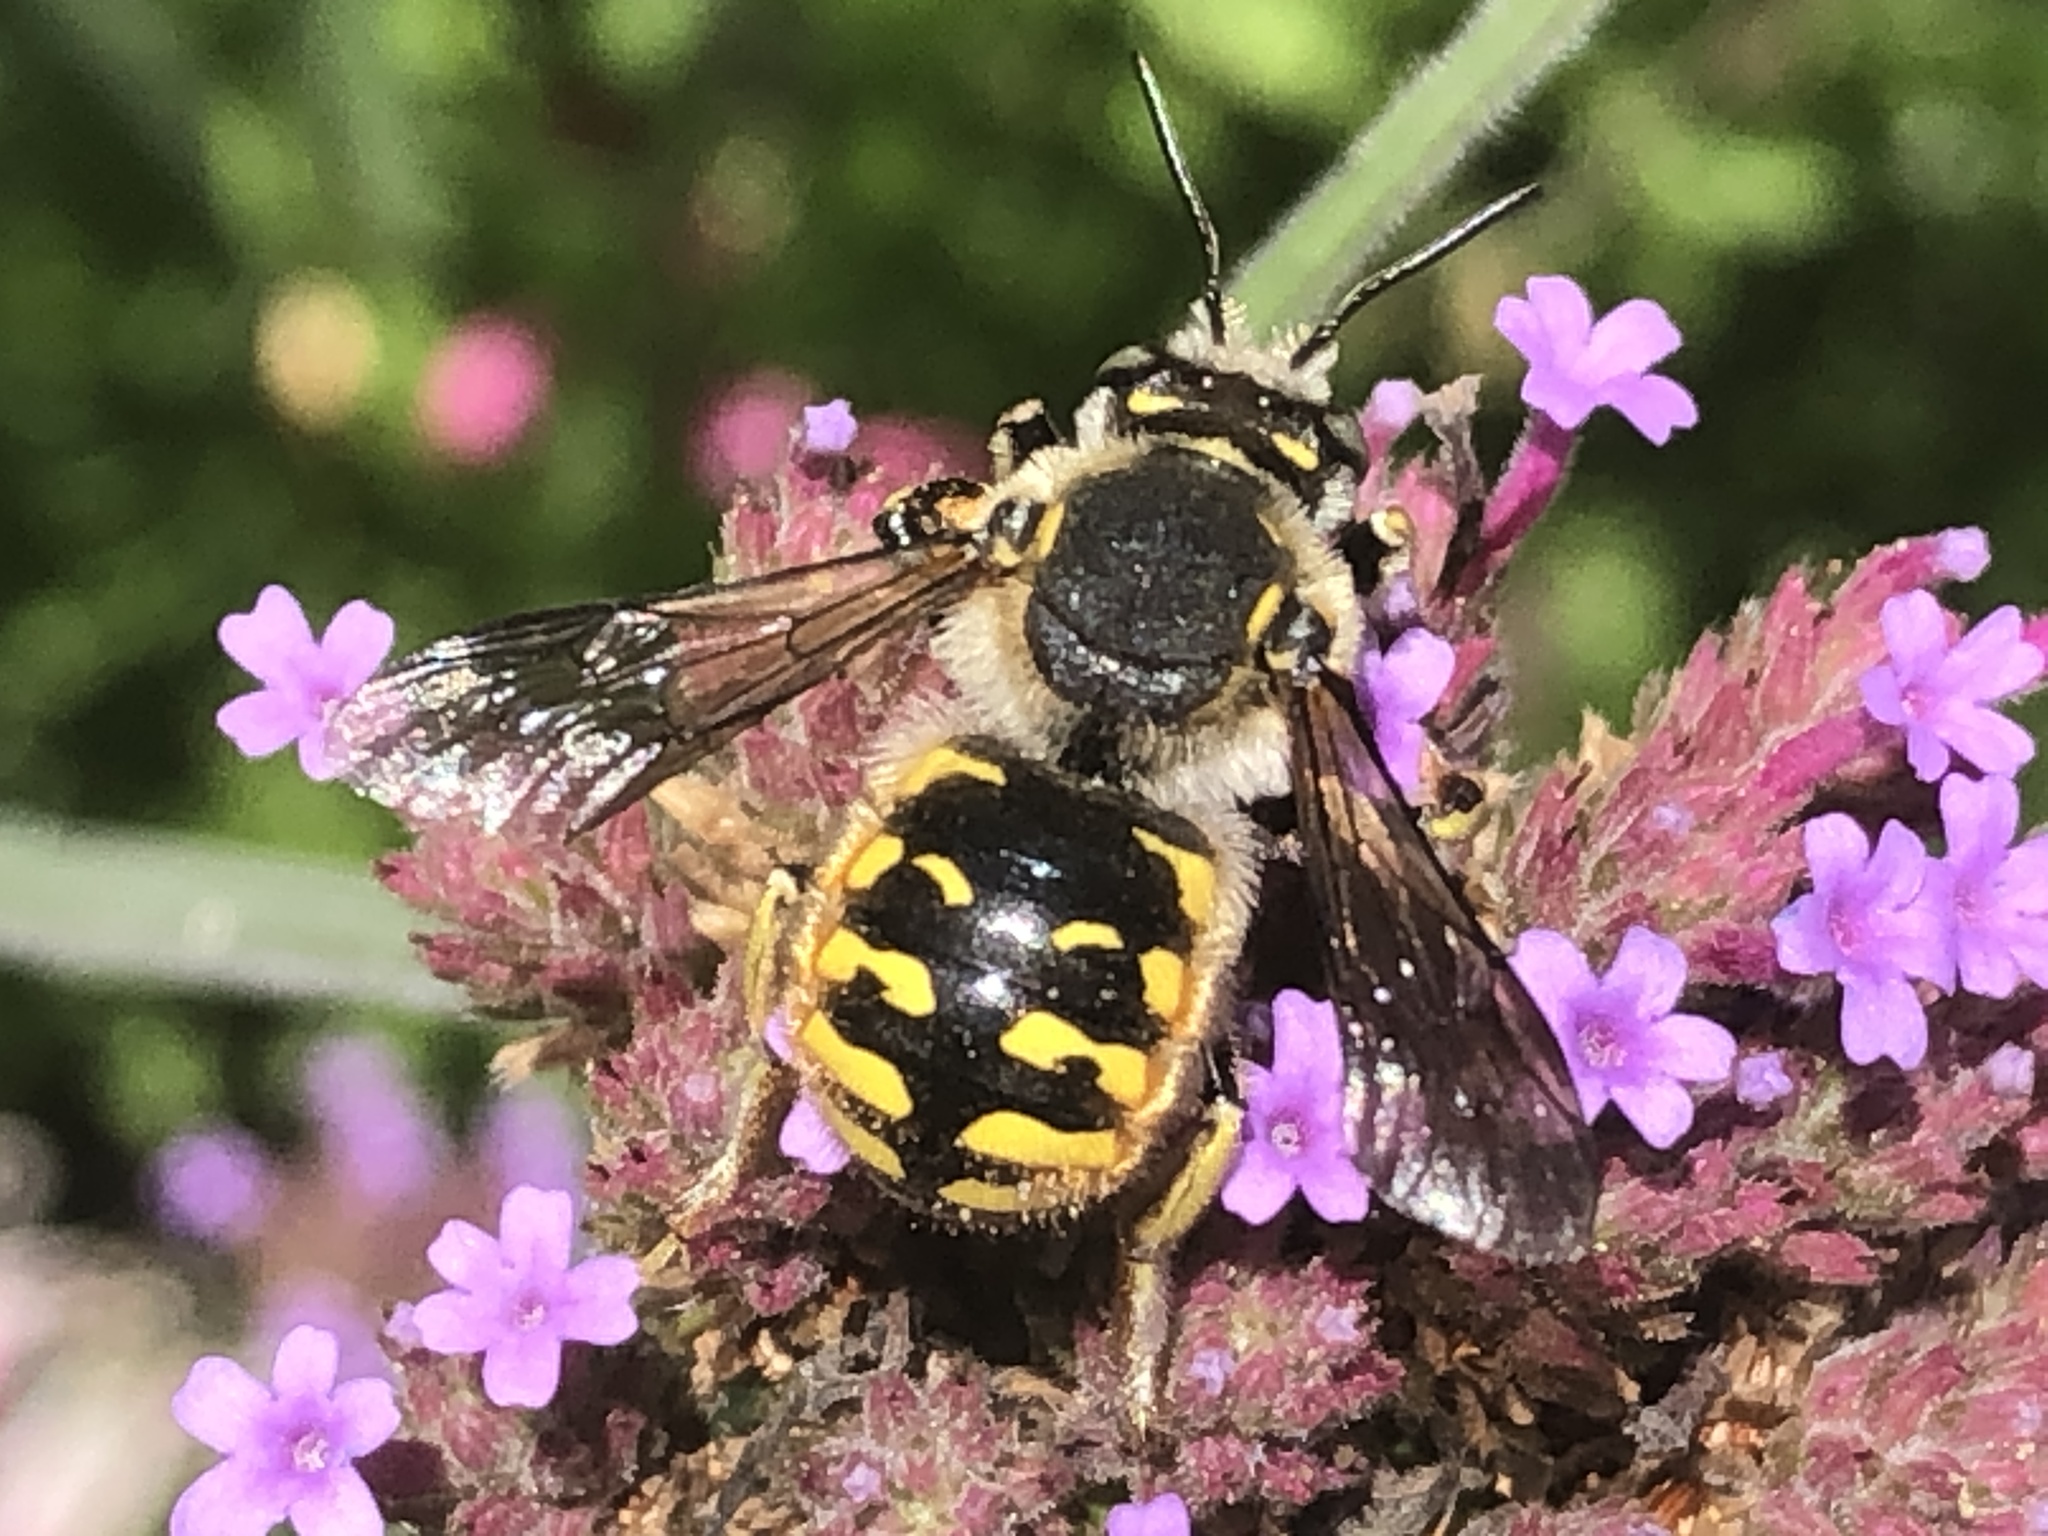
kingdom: Animalia
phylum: Arthropoda
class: Insecta
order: Hymenoptera
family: Megachilidae
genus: Anthidium
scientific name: Anthidium manicatum
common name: Wool carder bee
